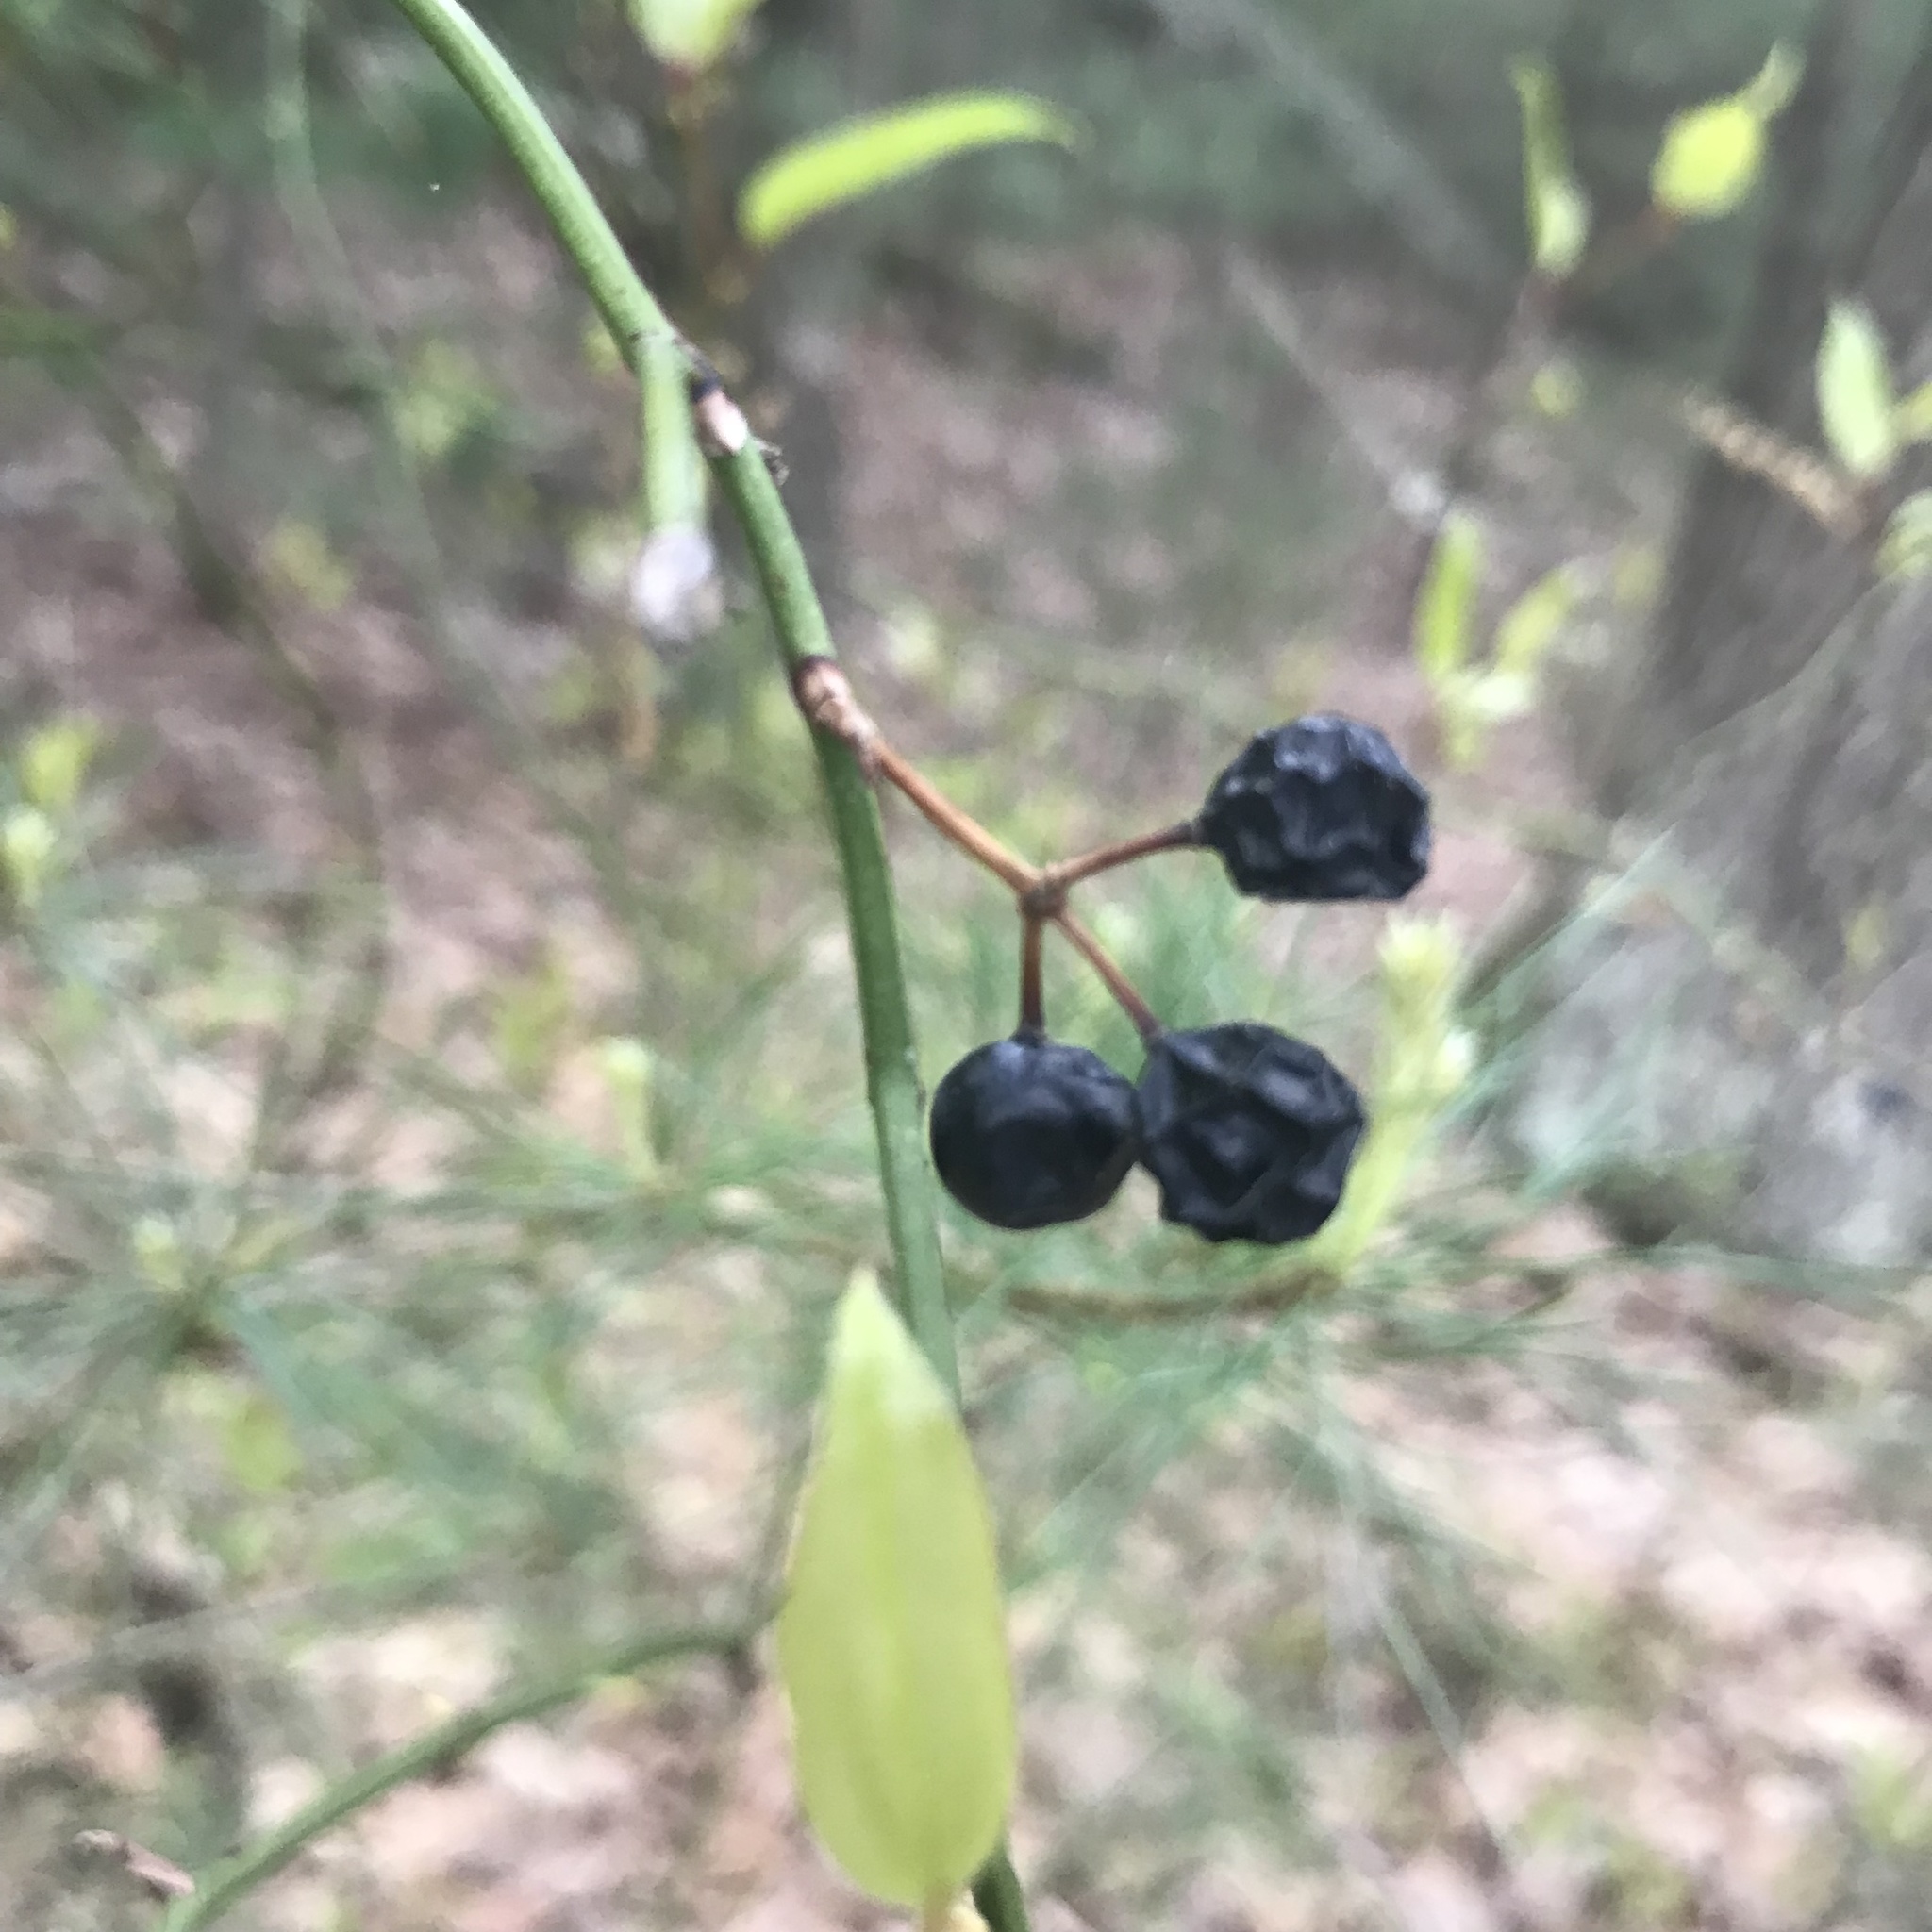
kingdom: Plantae
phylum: Tracheophyta
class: Liliopsida
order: Liliales
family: Smilacaceae
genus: Smilax
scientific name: Smilax rotundifolia
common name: Bullbriar
